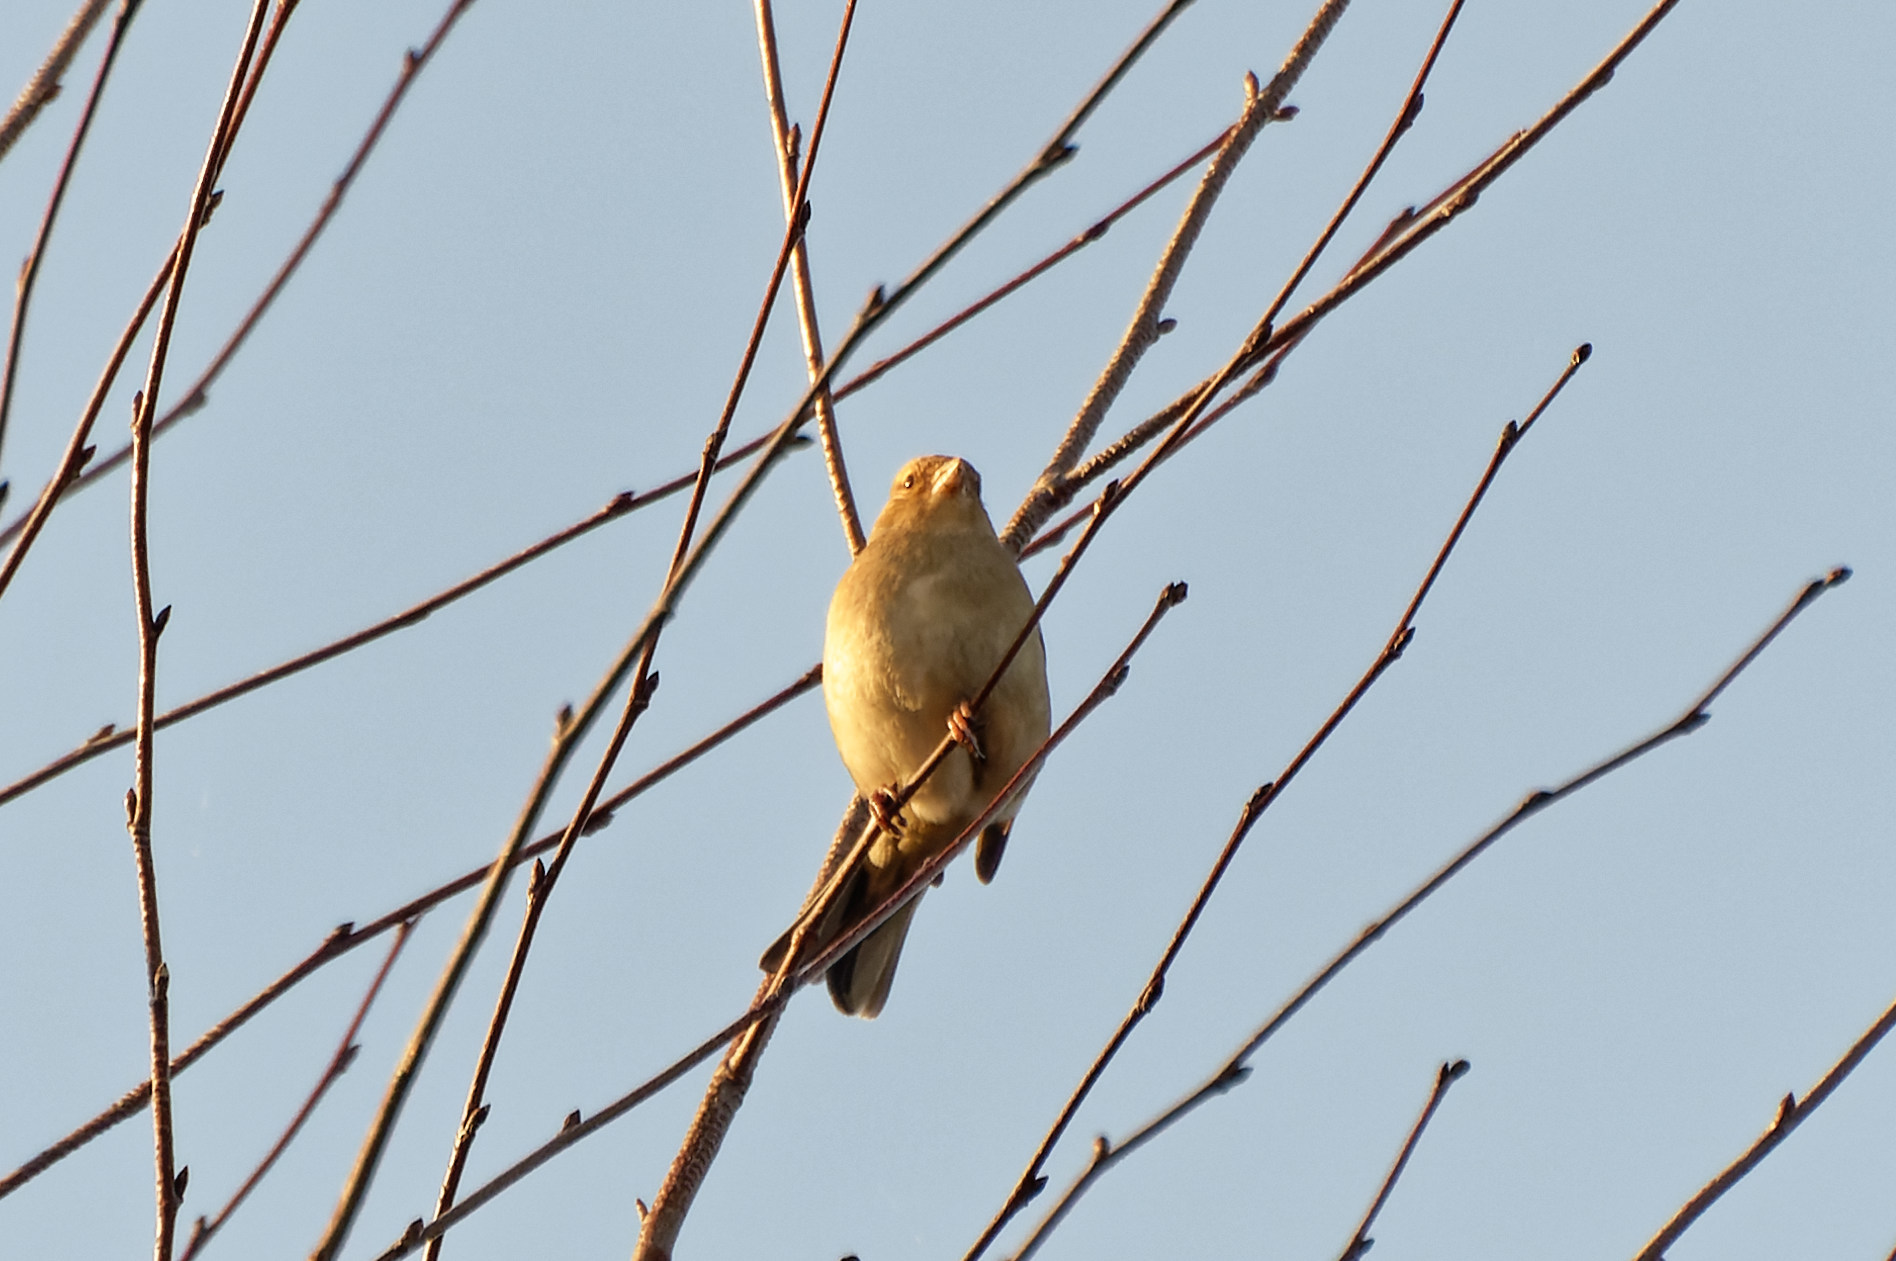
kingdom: Animalia
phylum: Chordata
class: Aves
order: Passeriformes
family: Fringillidae
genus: Fringilla
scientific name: Fringilla coelebs
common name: Common chaffinch
